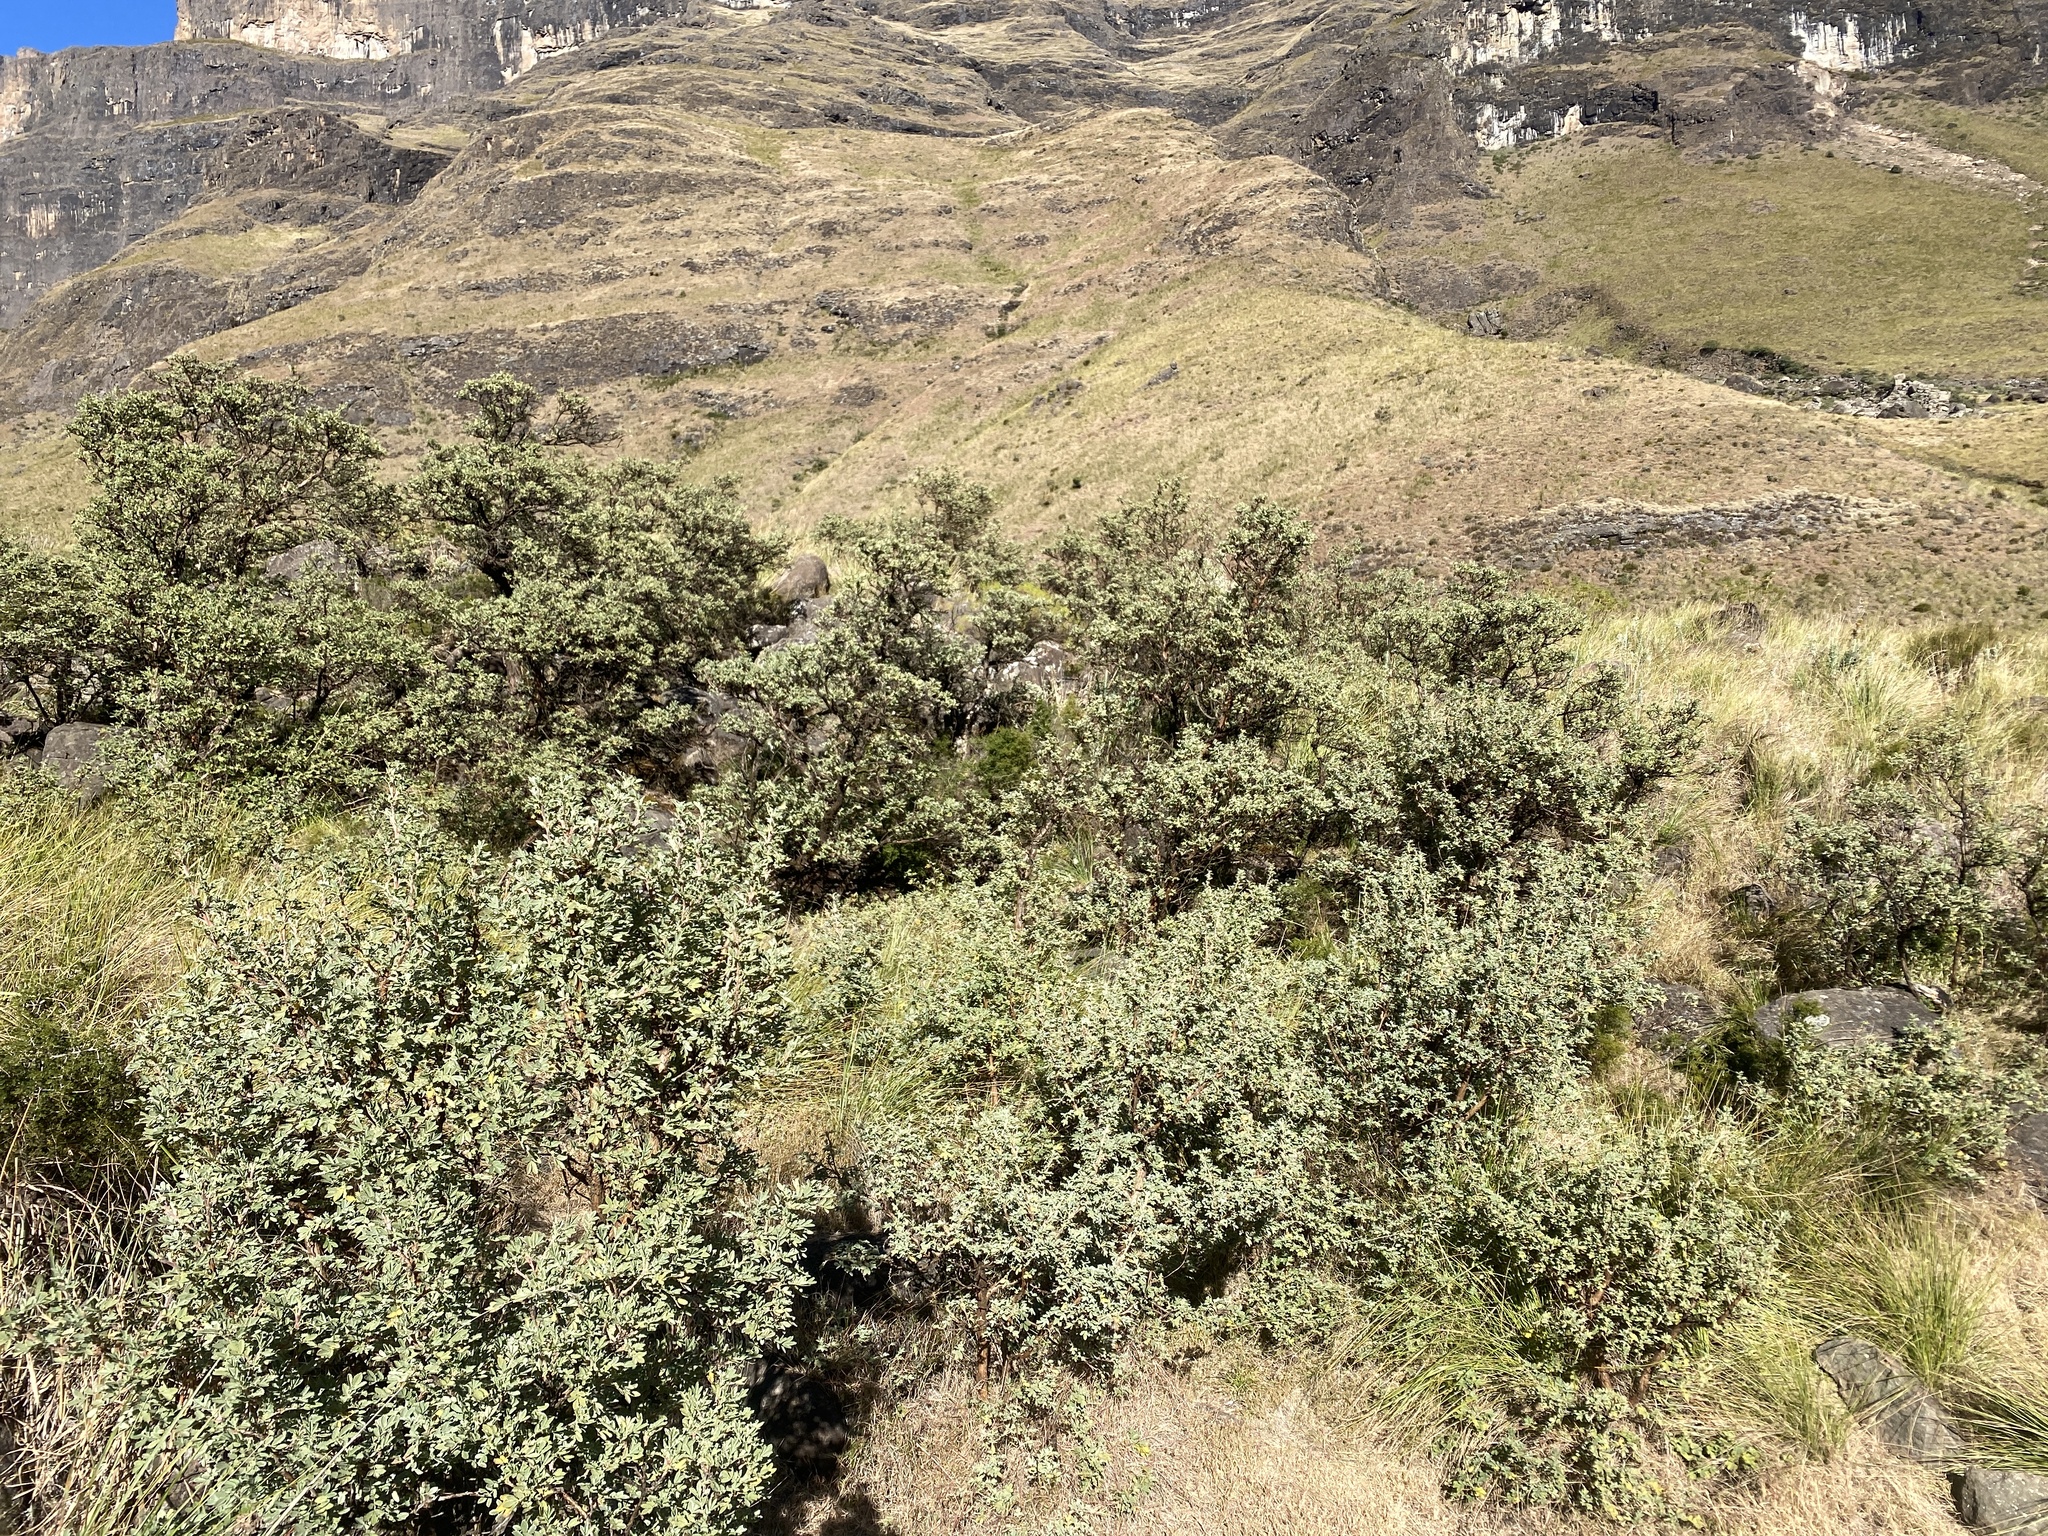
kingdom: Plantae
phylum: Tracheophyta
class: Magnoliopsida
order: Rosales
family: Rosaceae
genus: Leucosidea
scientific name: Leucosidea sericea
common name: Oldwood
